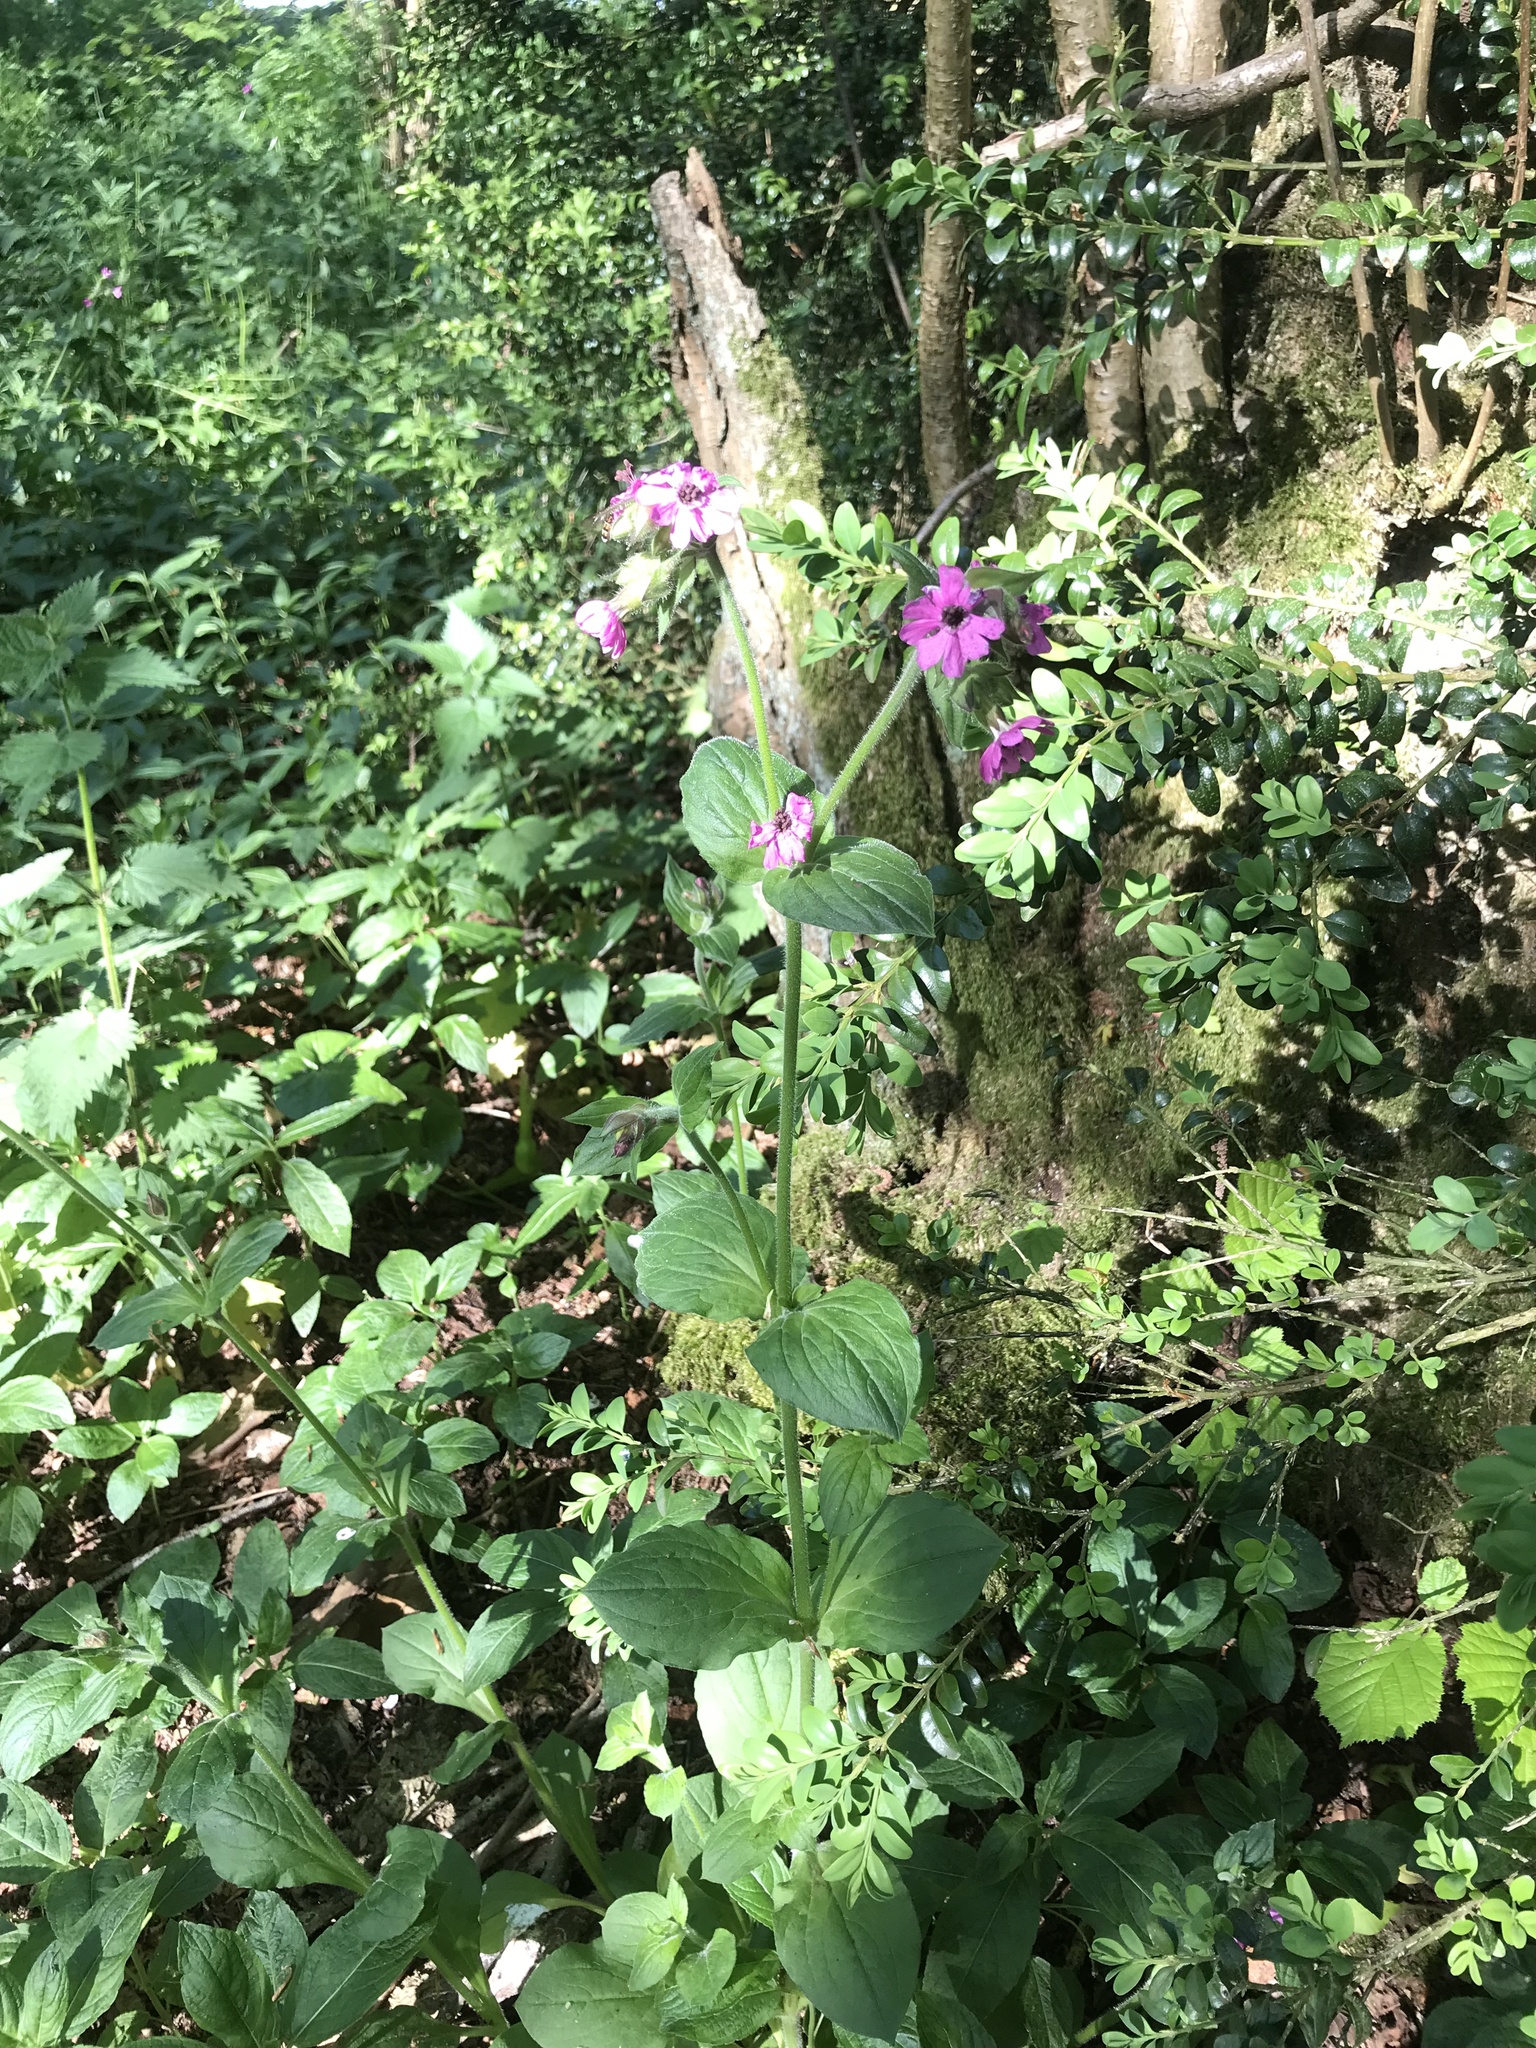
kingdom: Plantae
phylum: Tracheophyta
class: Magnoliopsida
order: Caryophyllales
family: Caryophyllaceae
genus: Silene
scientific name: Silene dioica
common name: Red campion
